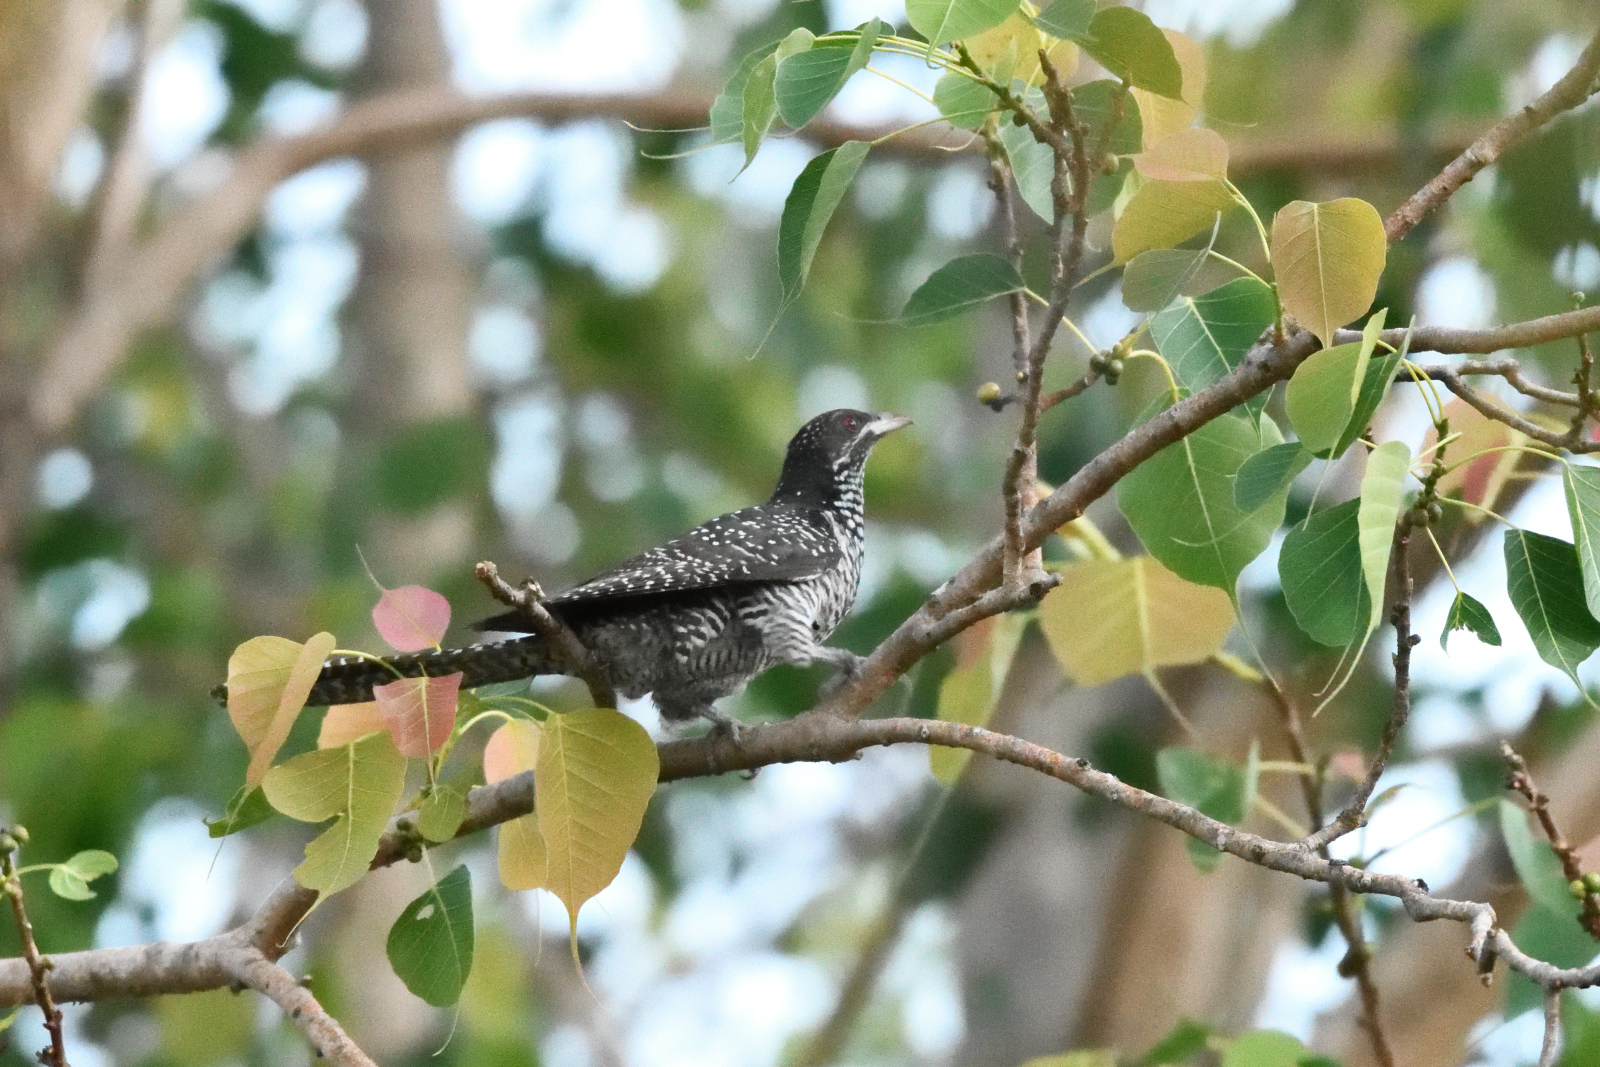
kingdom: Animalia
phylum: Chordata
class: Aves
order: Cuculiformes
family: Cuculidae
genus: Eudynamys
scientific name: Eudynamys scolopaceus
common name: Asian koel
